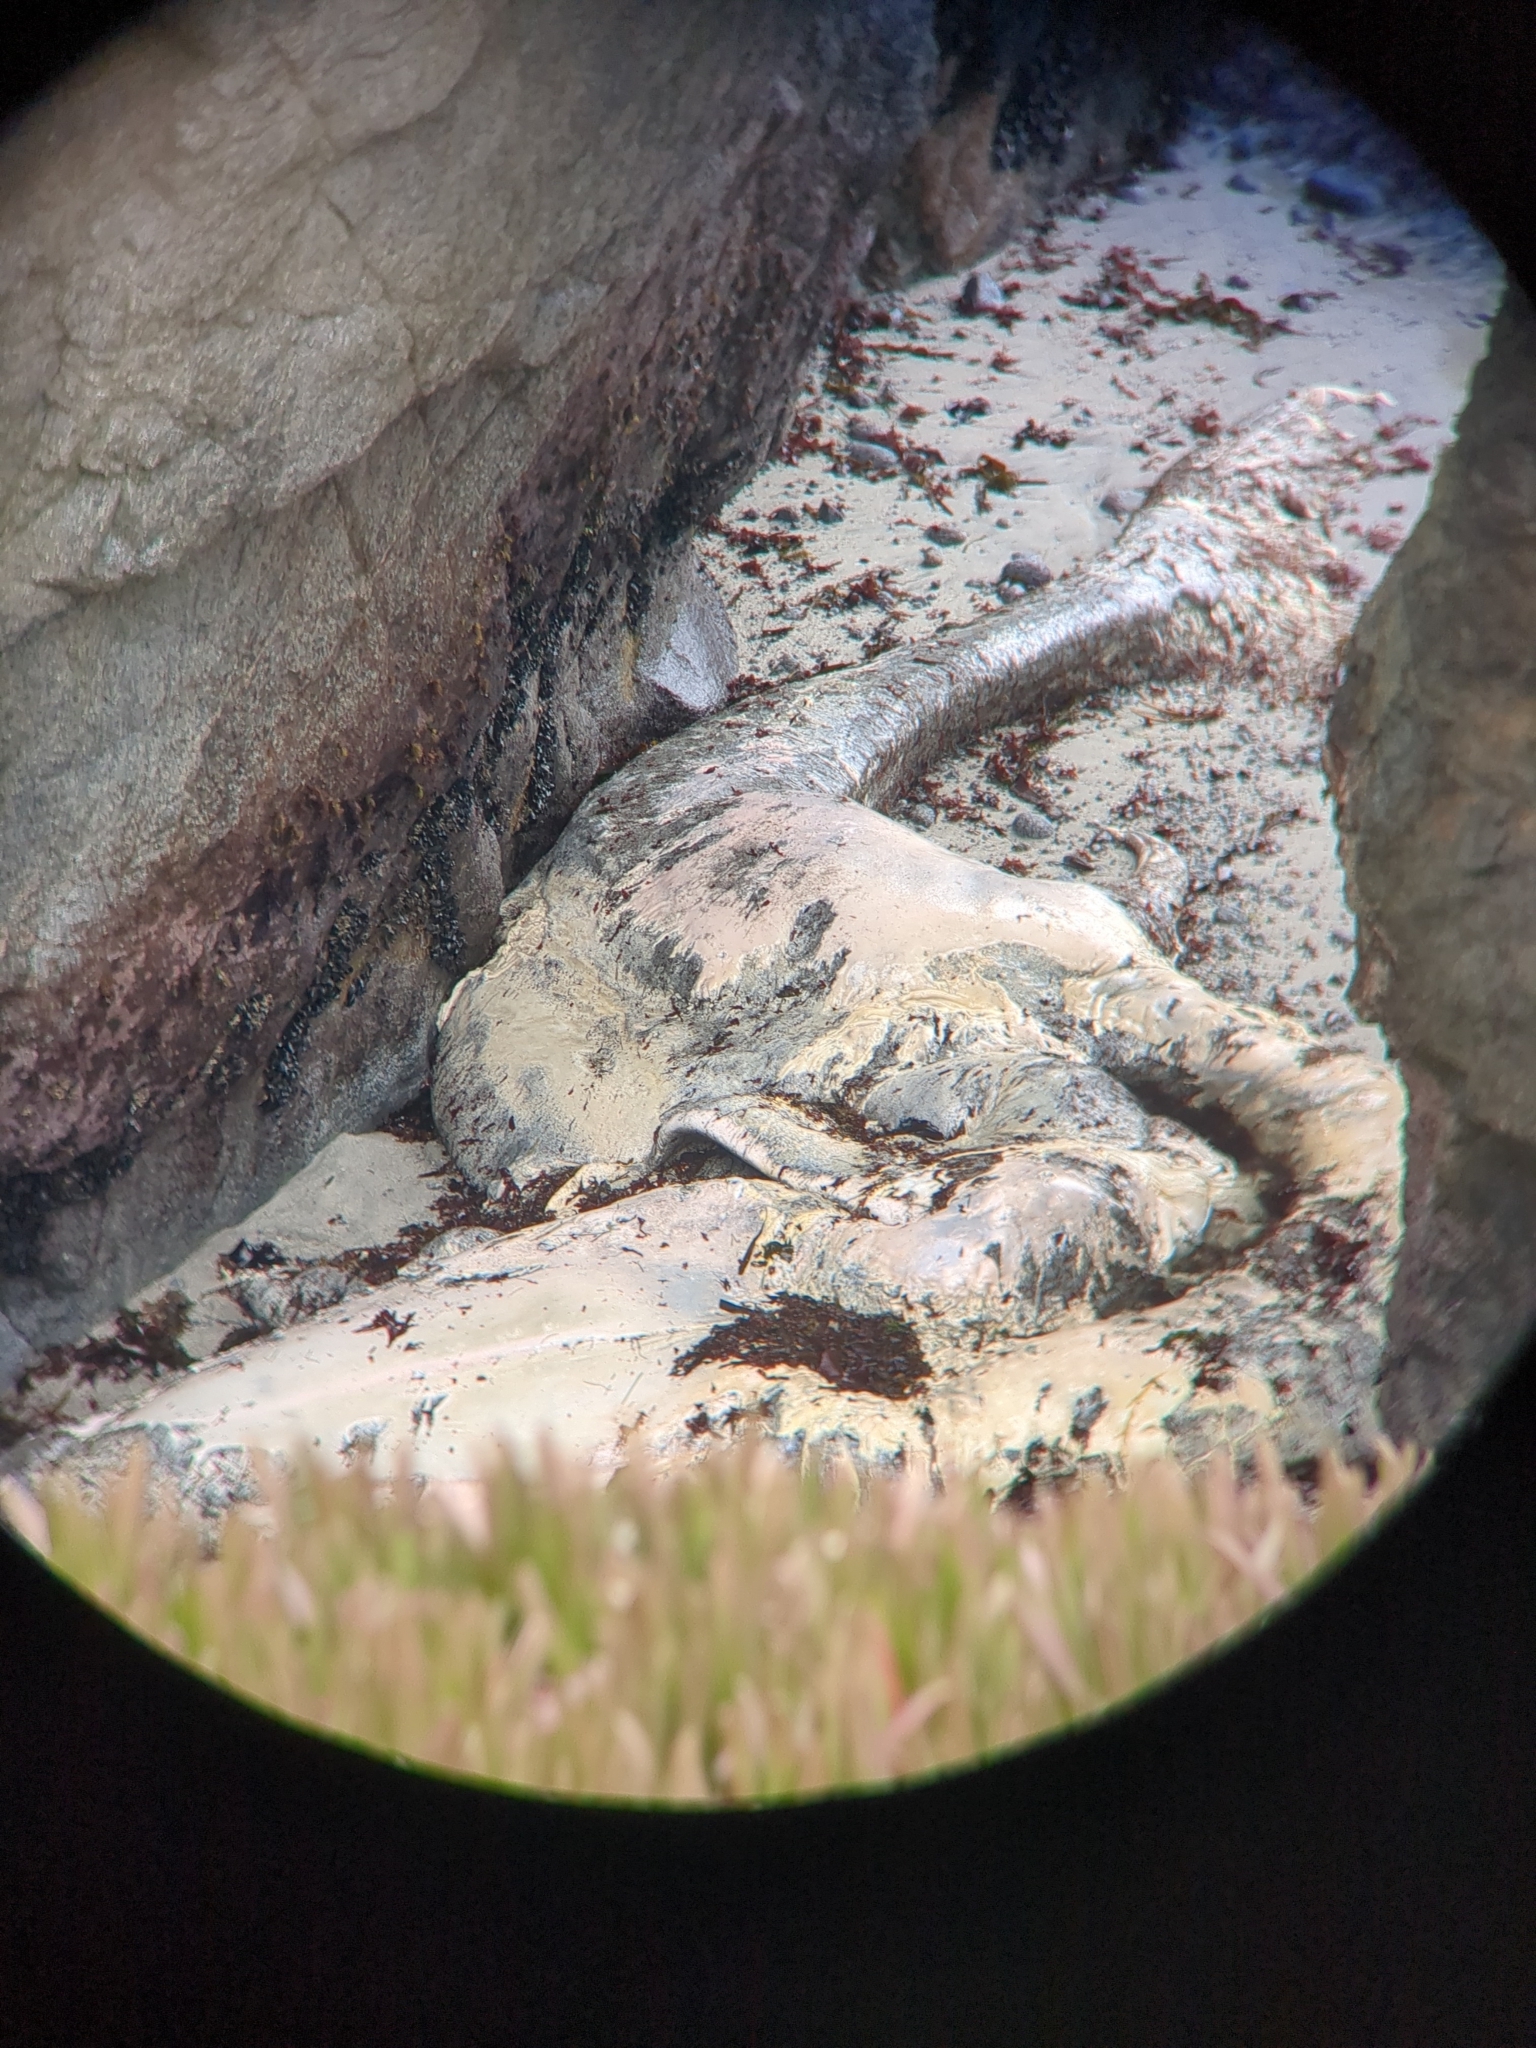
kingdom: Animalia
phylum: Chordata
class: Mammalia
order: Cetacea
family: Eschrichtiidae
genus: Eschrichtius
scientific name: Eschrichtius robustus
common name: Gray whale
